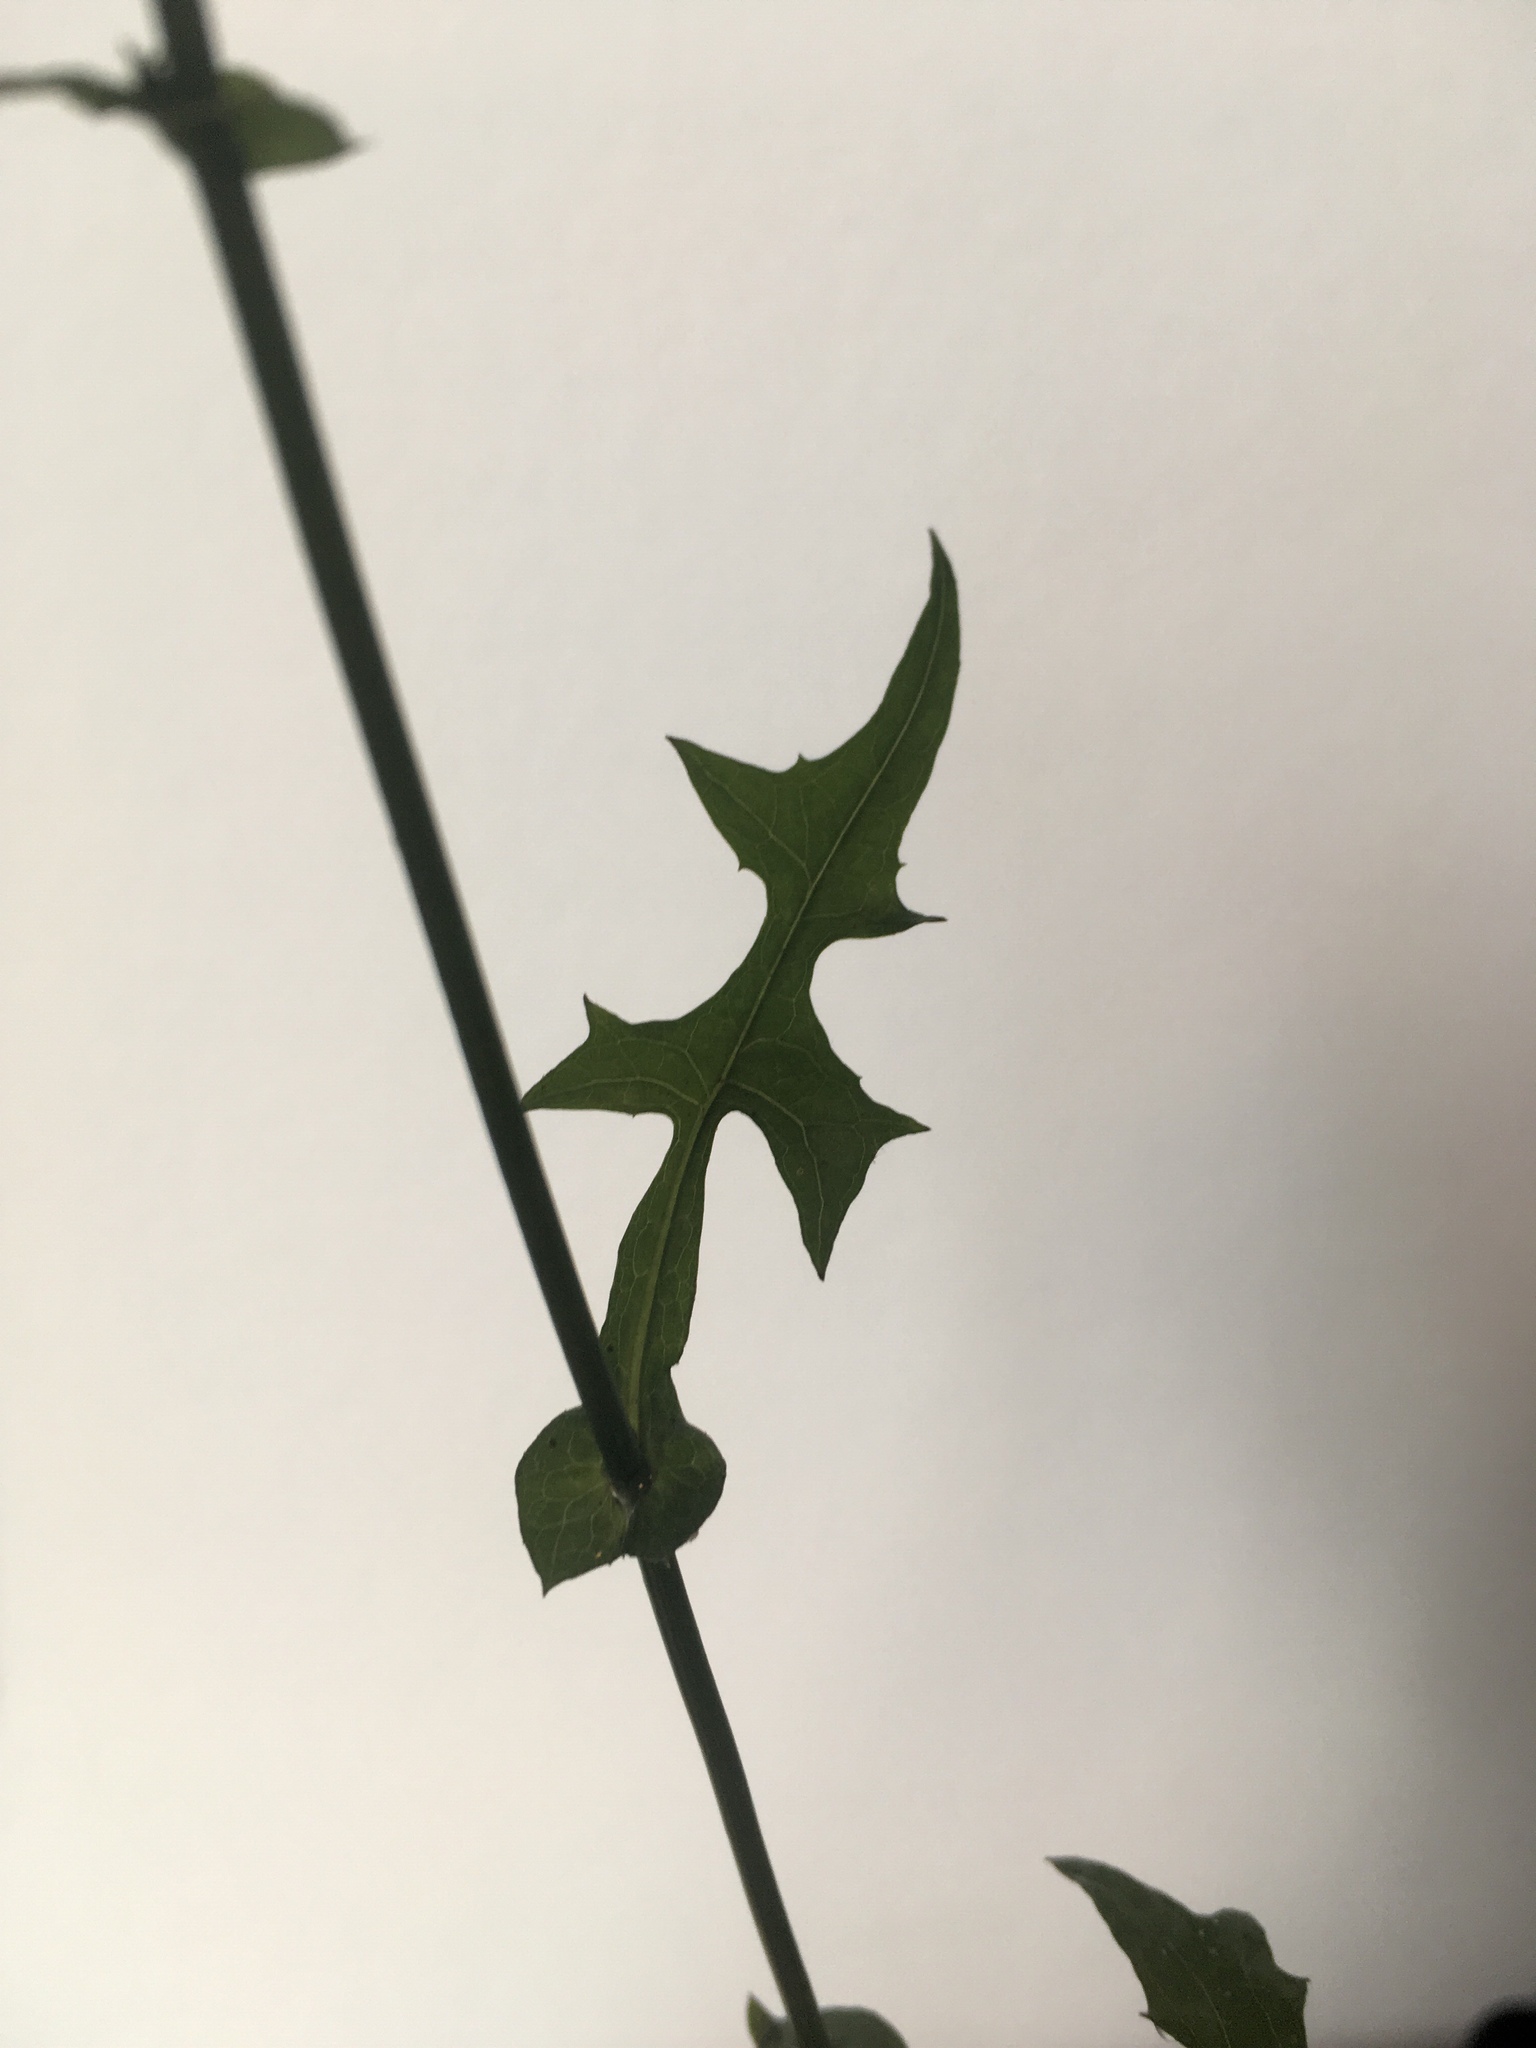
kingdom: Plantae
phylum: Tracheophyta
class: Magnoliopsida
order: Asterales
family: Asteraceae
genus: Mycelis
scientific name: Mycelis muralis
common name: Wall lettuce
